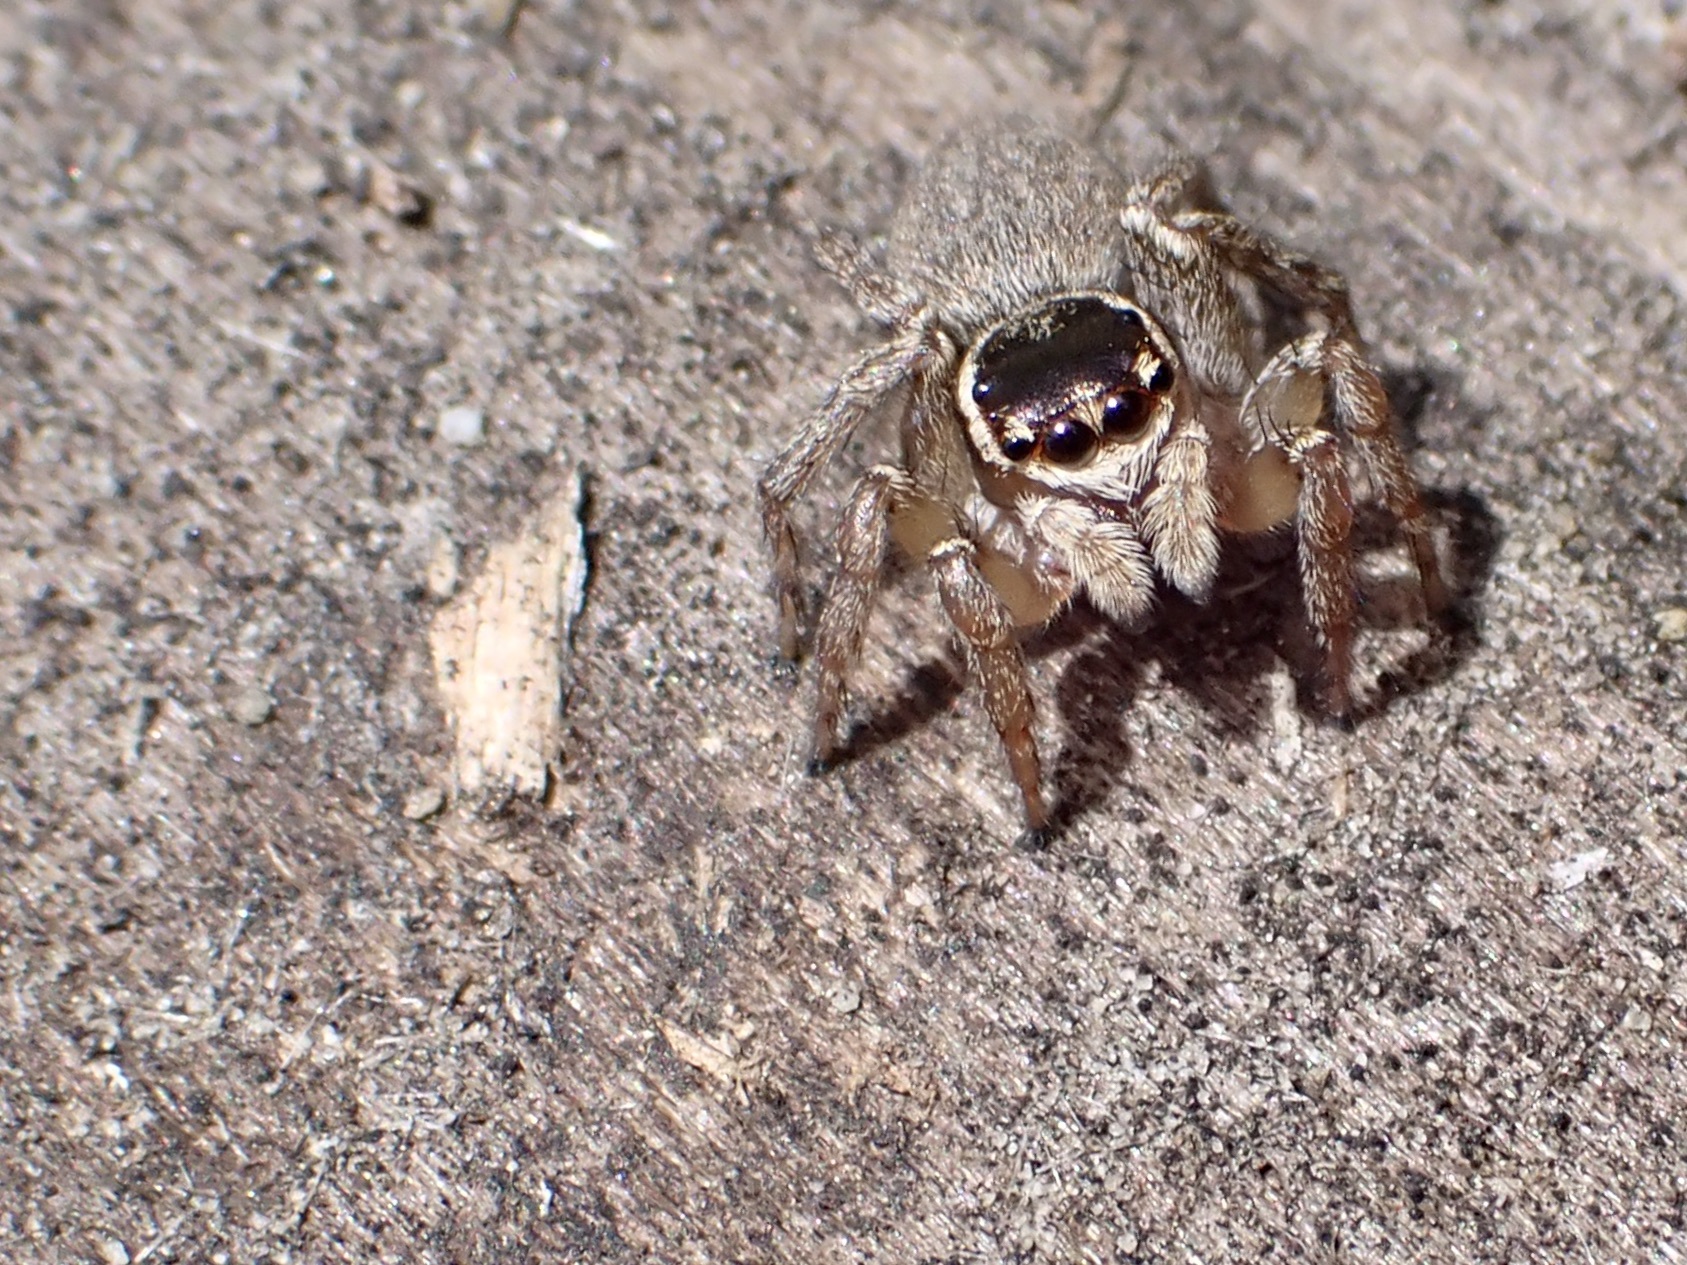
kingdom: Animalia
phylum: Arthropoda
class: Arachnida
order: Araneae
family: Salticidae
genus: Maratus
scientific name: Maratus griseus
